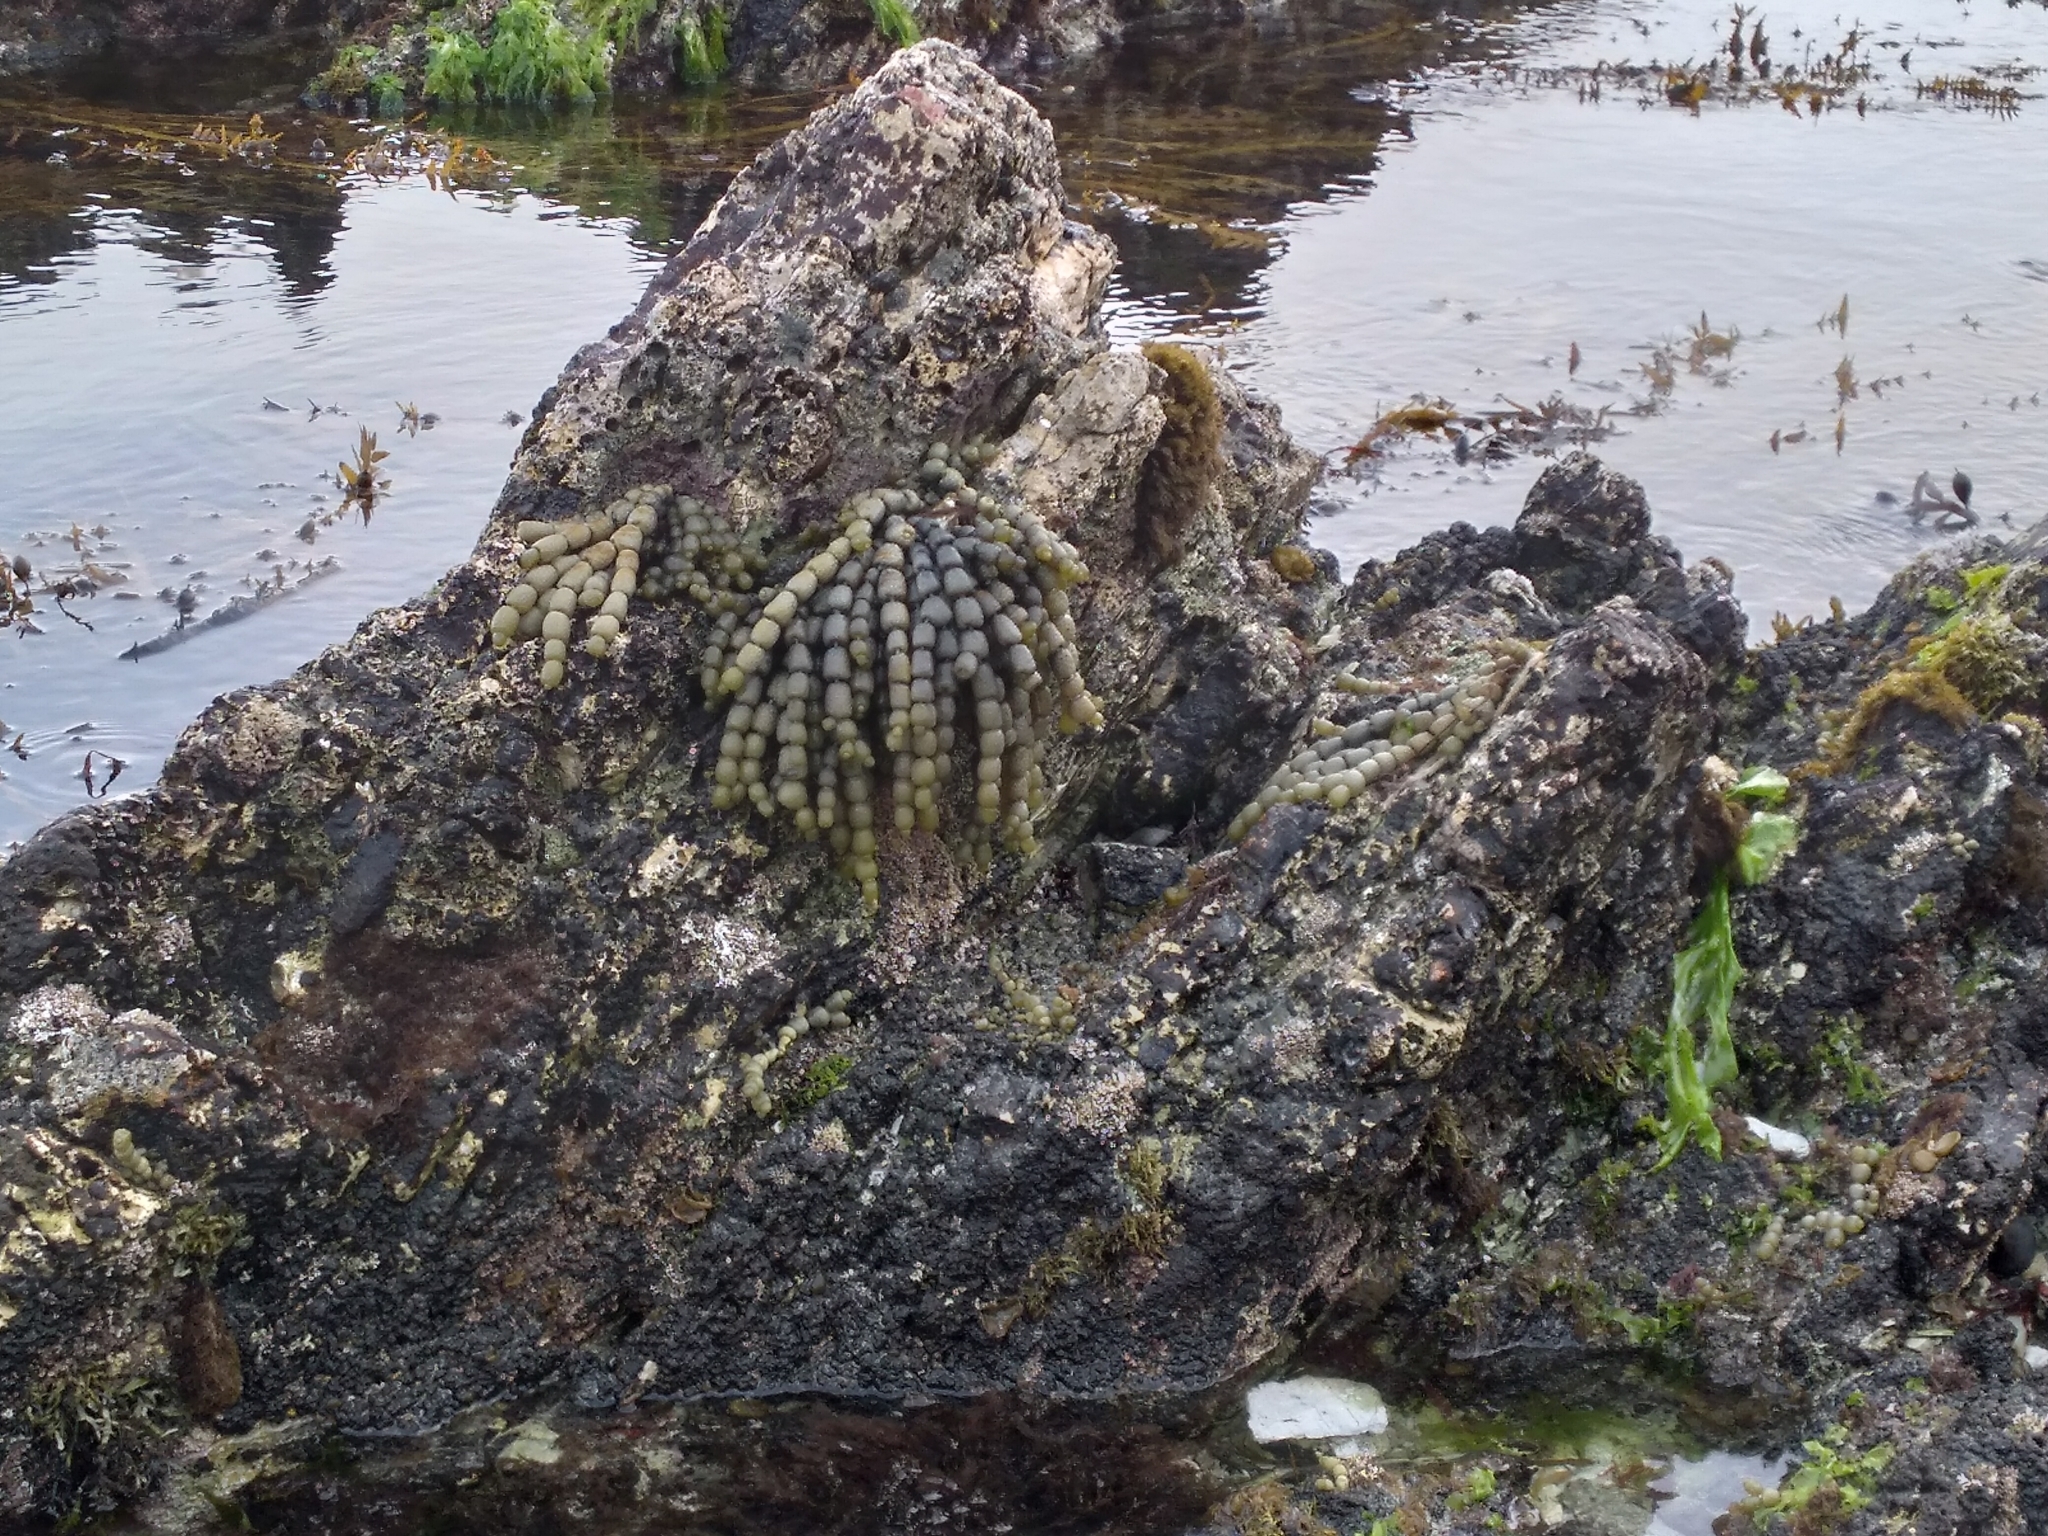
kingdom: Chromista
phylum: Ochrophyta
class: Phaeophyceae
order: Fucales
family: Hormosiraceae
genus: Hormosira
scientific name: Hormosira banksii
